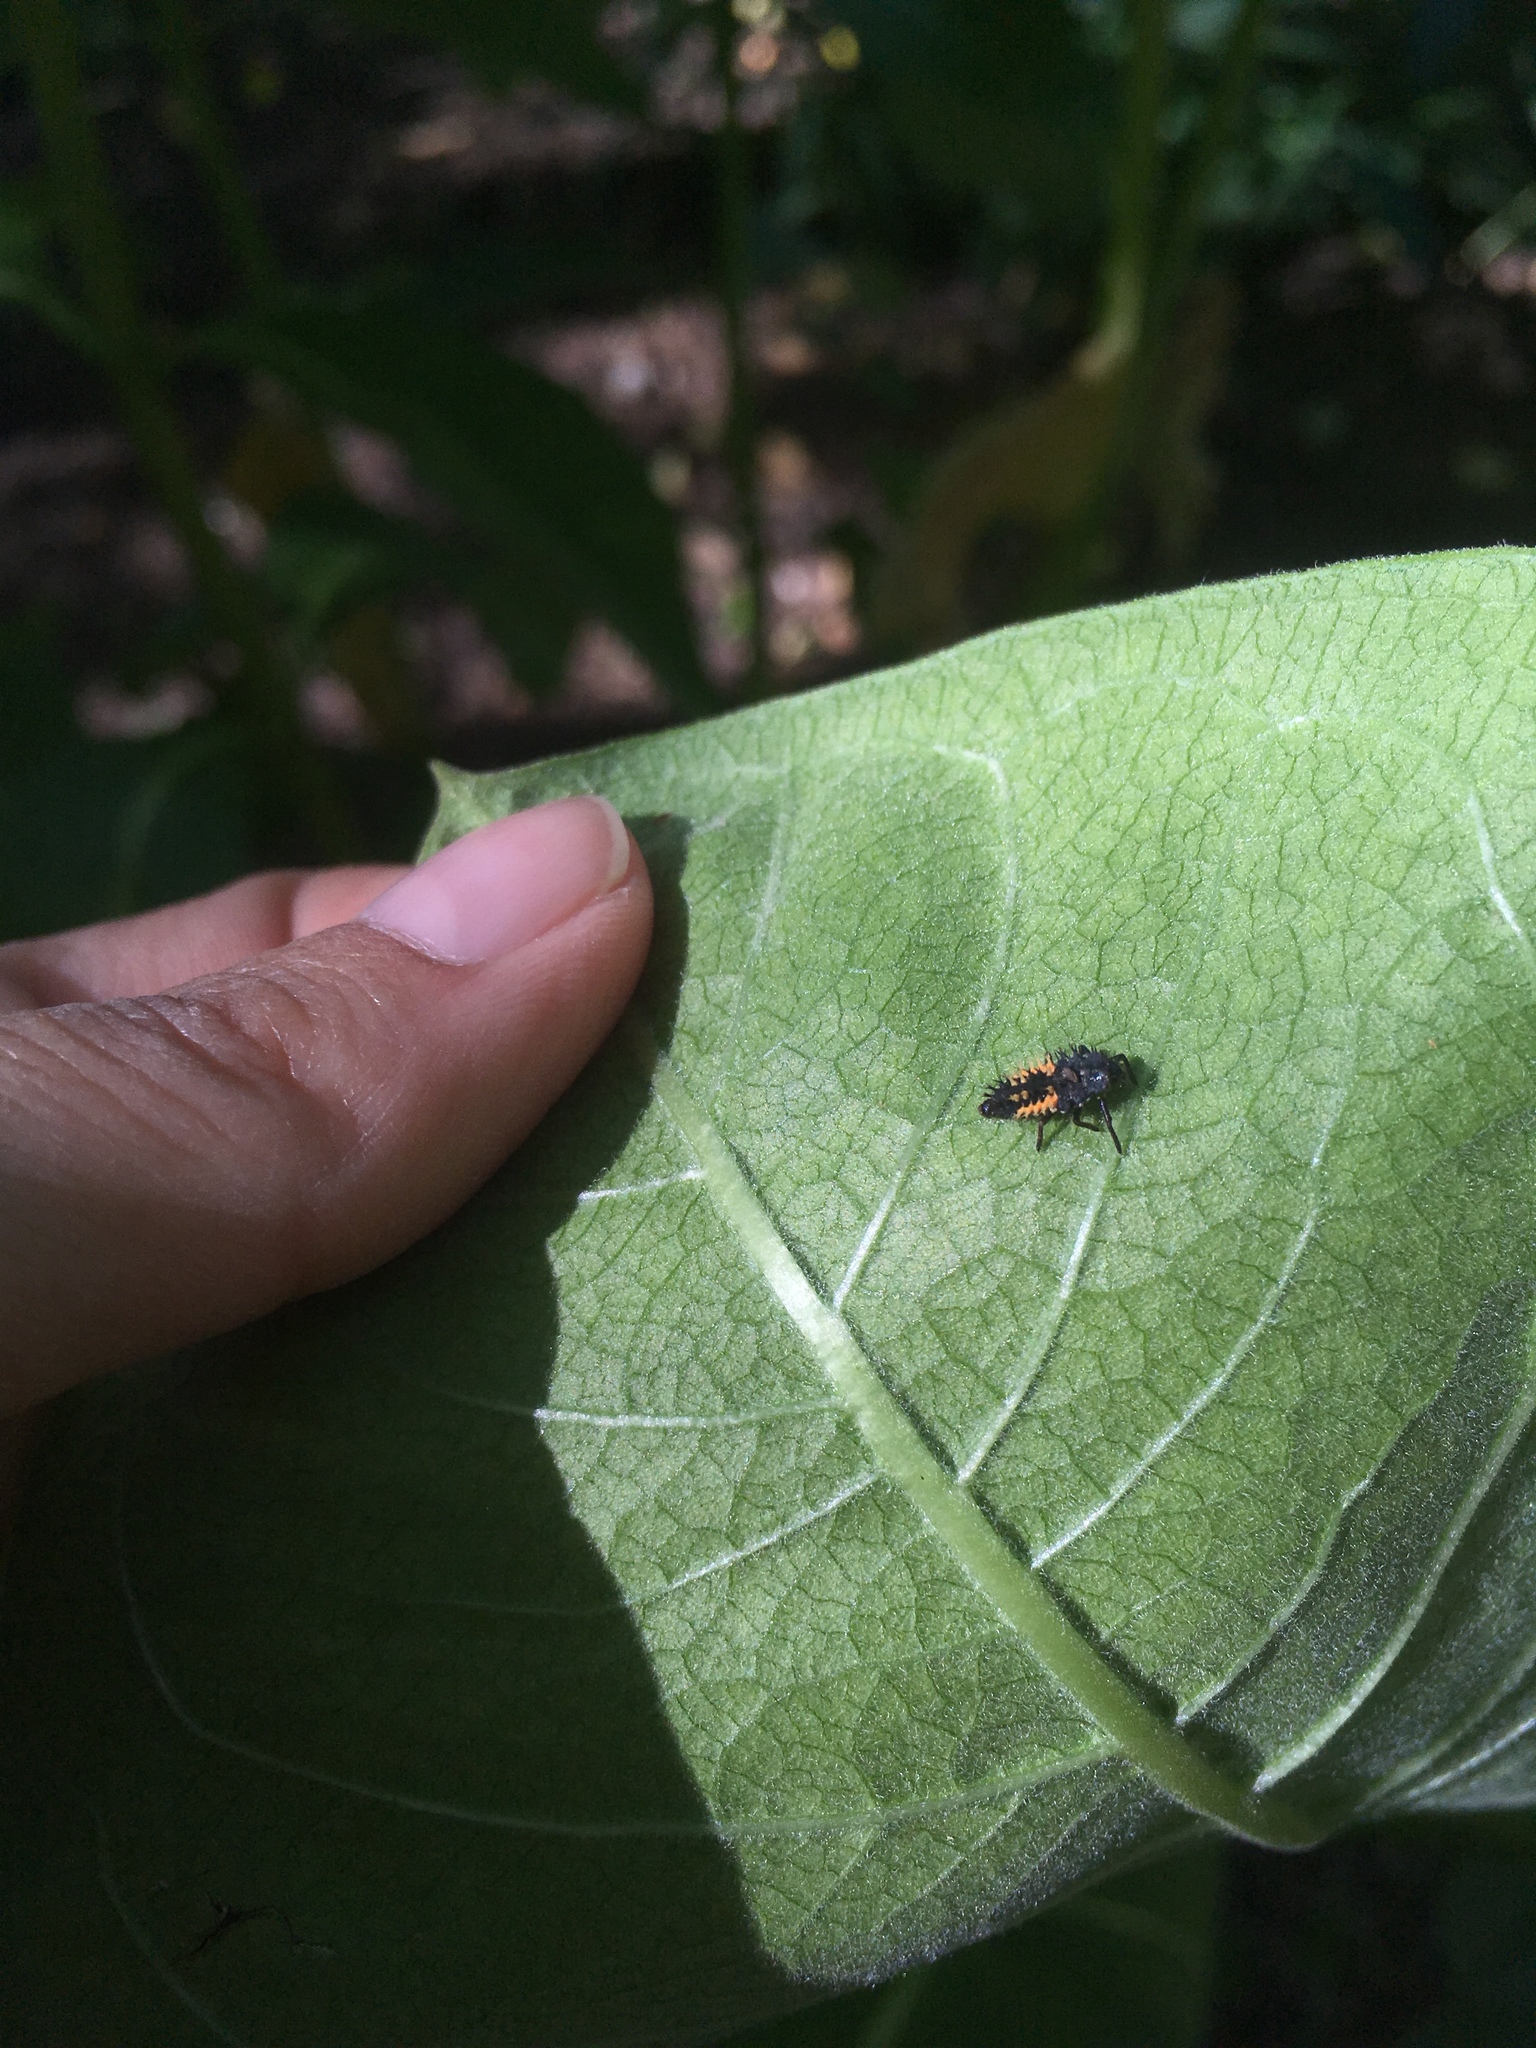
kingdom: Animalia
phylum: Arthropoda
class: Insecta
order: Coleoptera
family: Coccinellidae
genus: Harmonia
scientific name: Harmonia axyridis
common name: Harlequin ladybird
